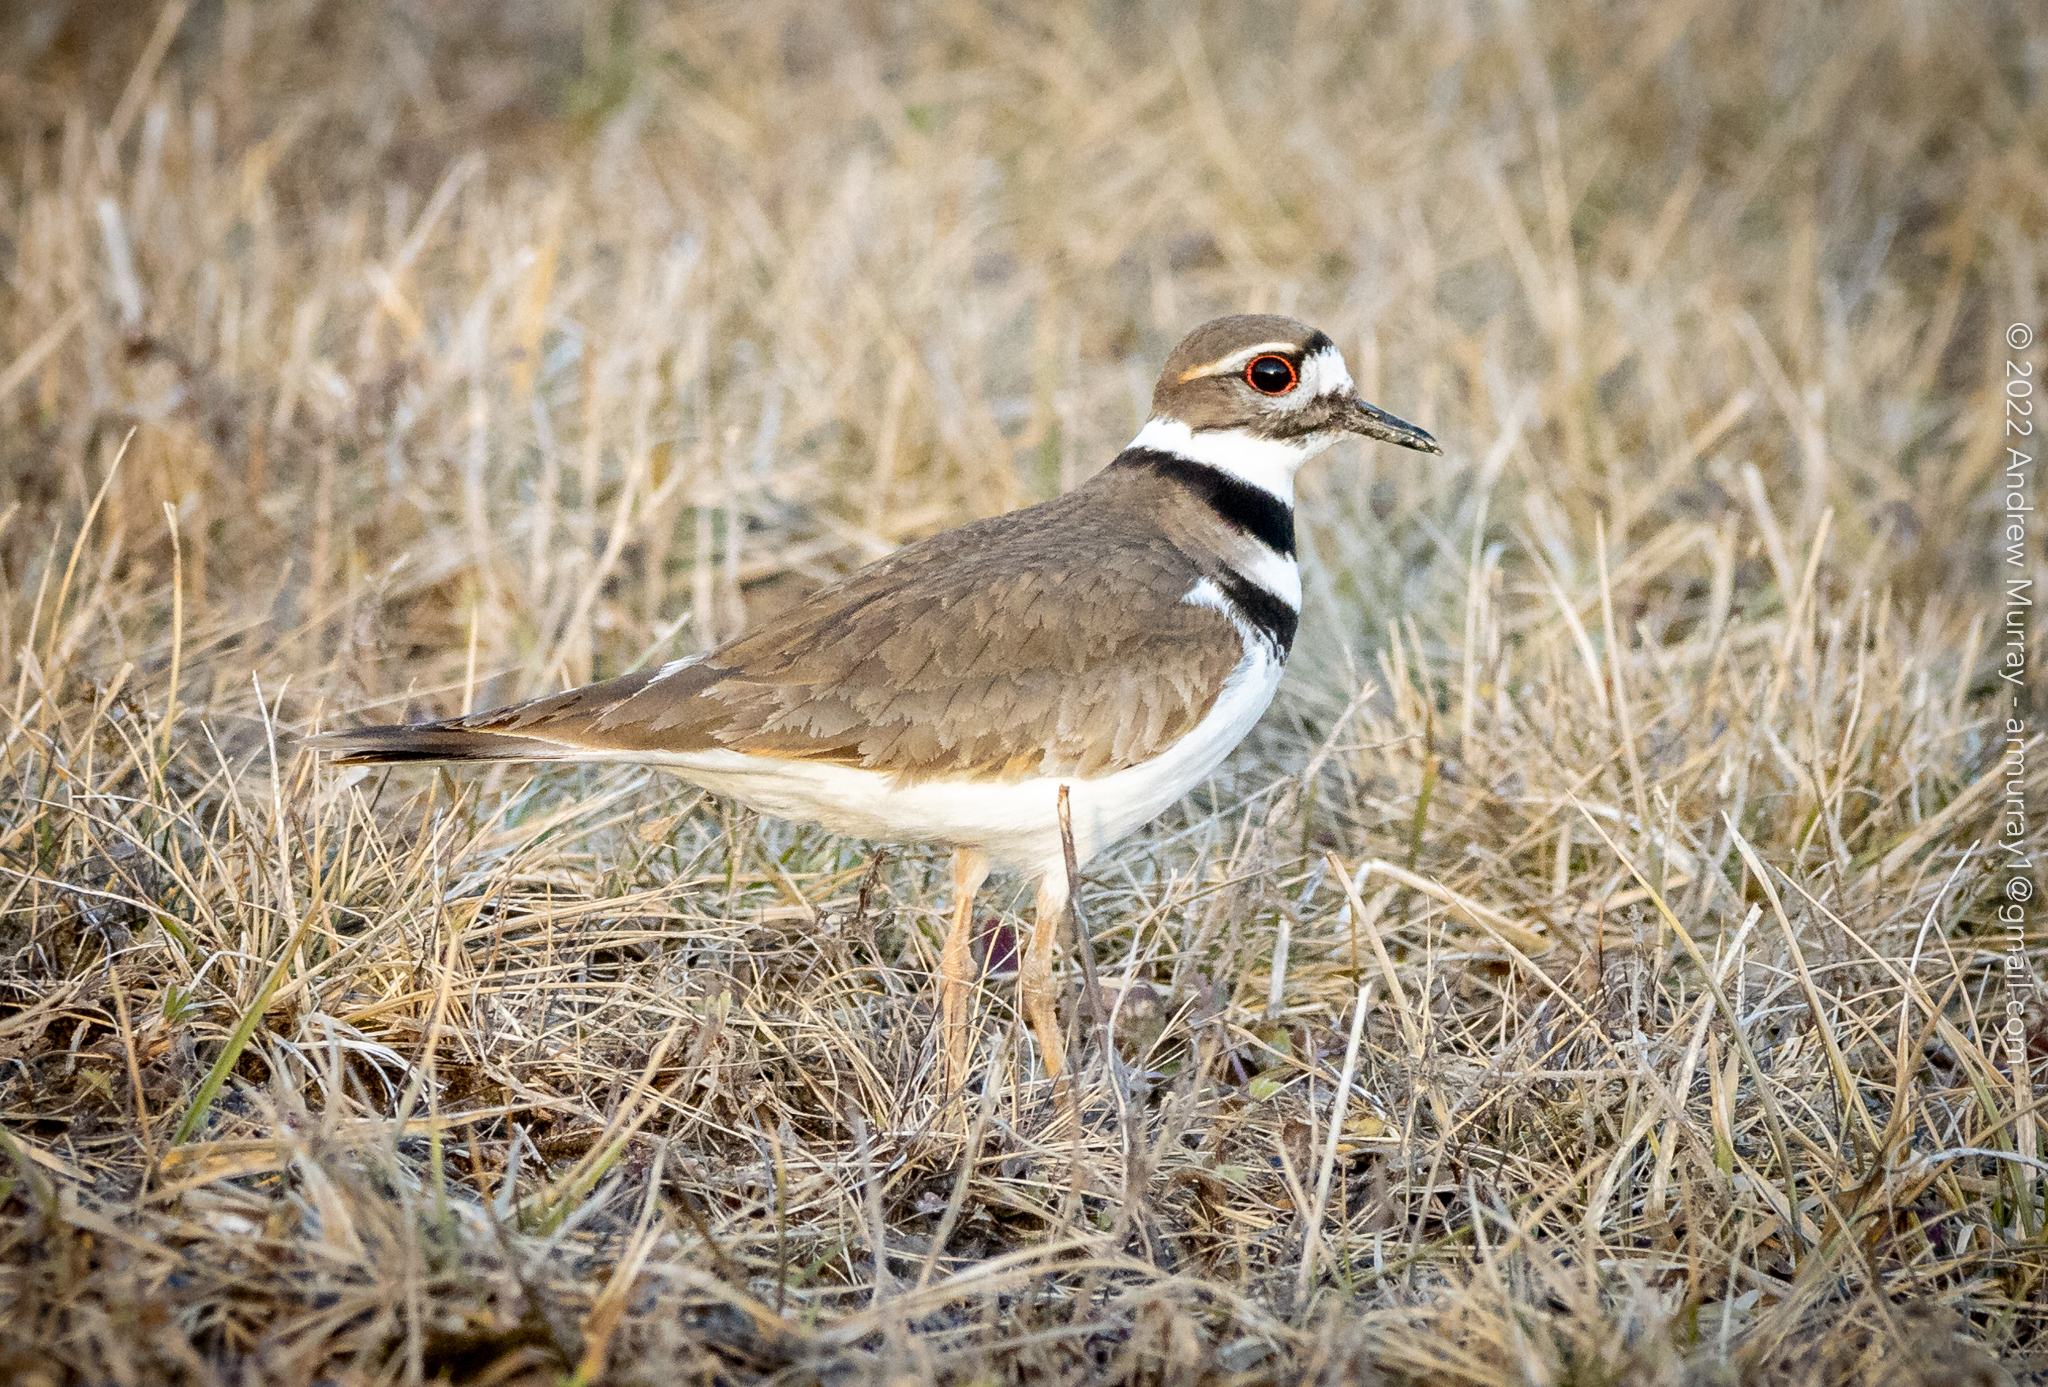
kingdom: Animalia
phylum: Chordata
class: Aves
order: Charadriiformes
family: Charadriidae
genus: Charadrius
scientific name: Charadrius vociferus
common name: Killdeer
